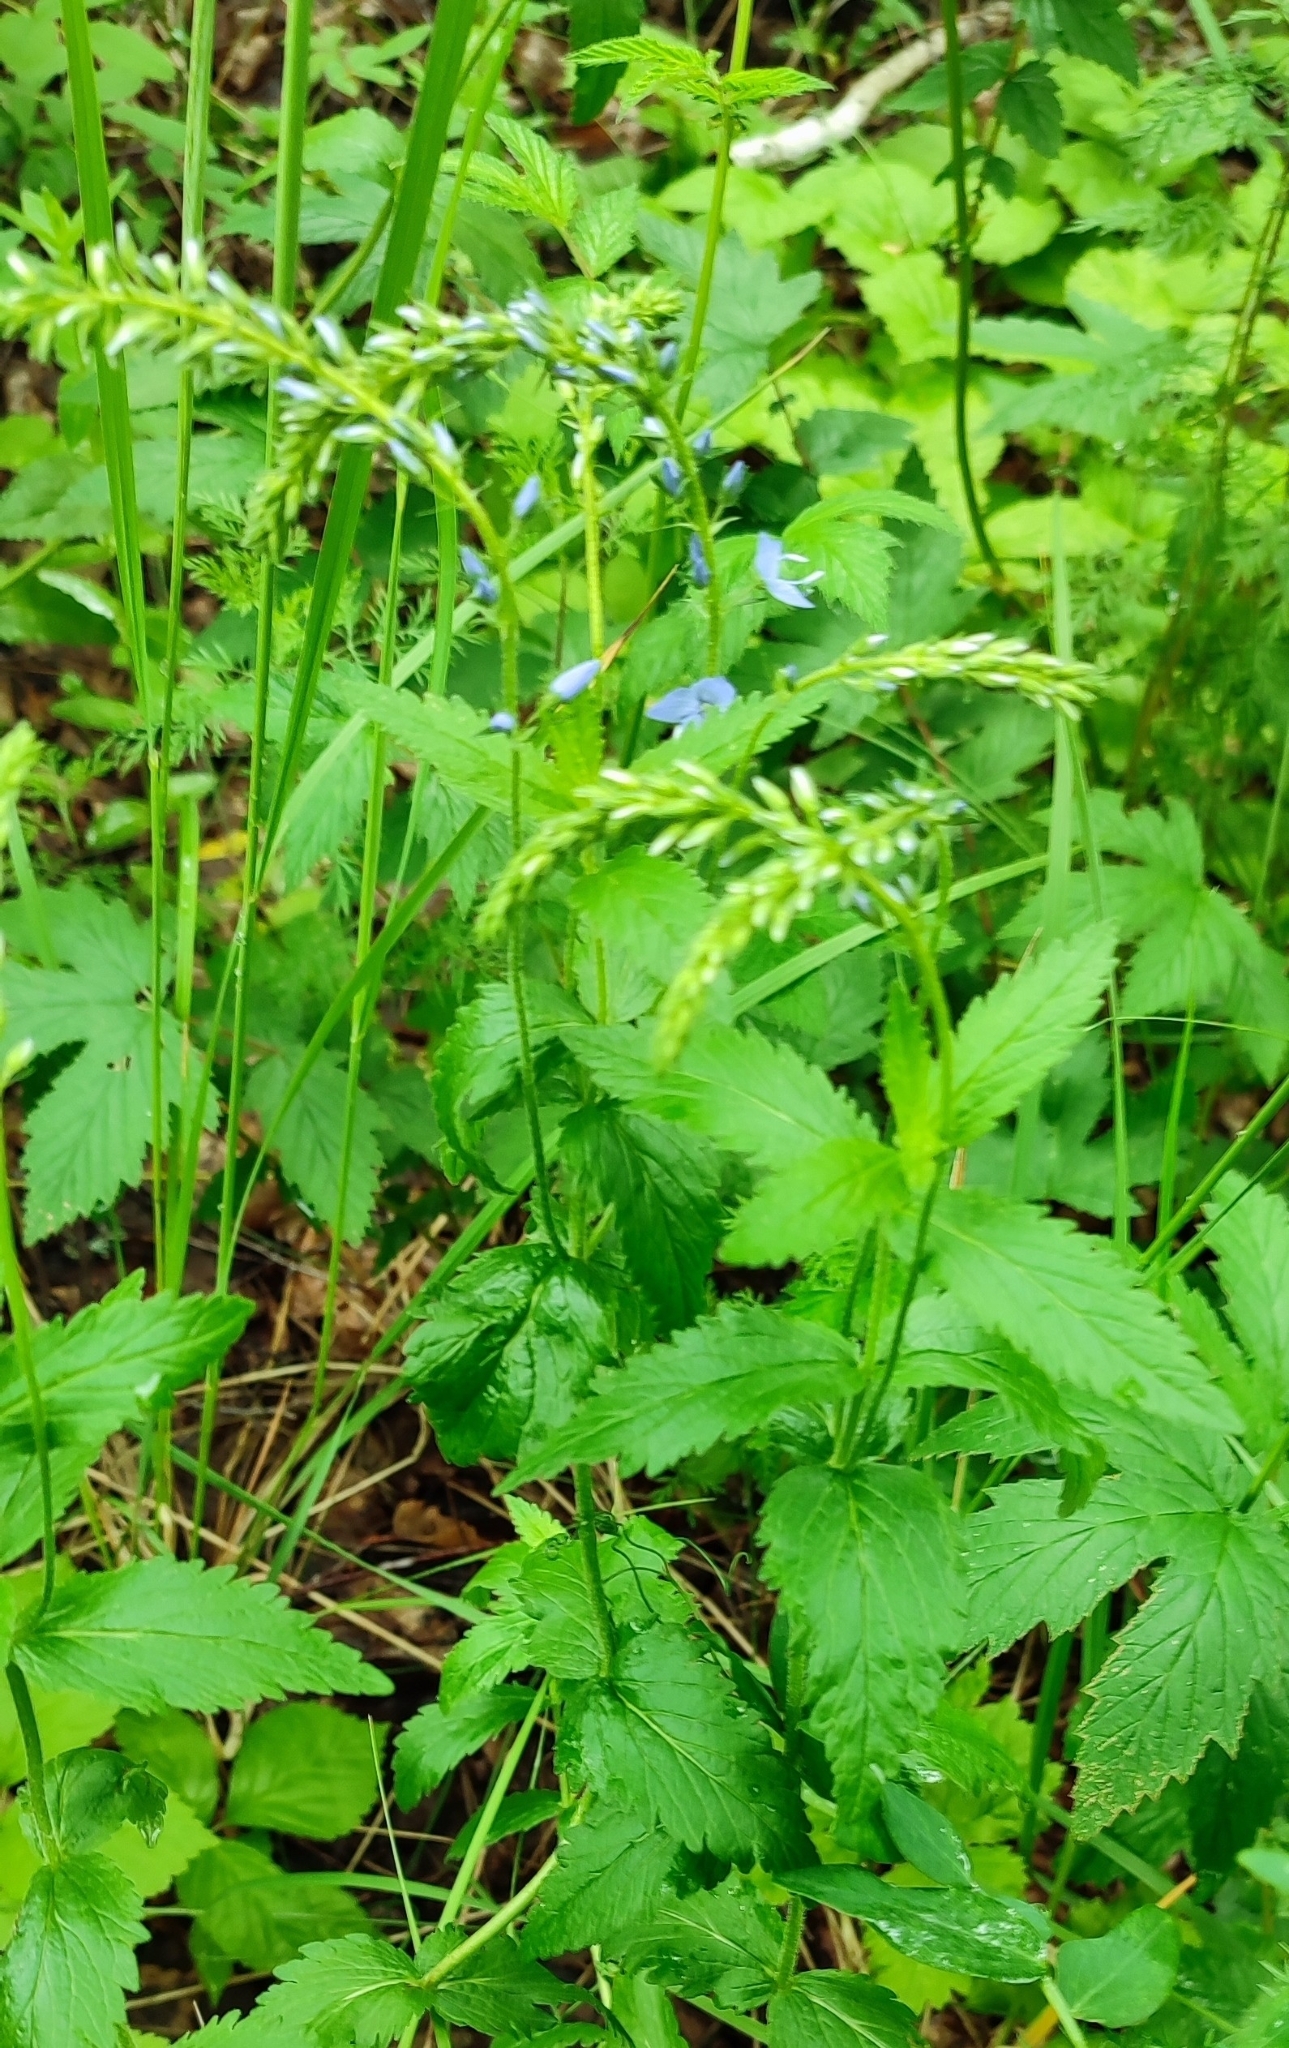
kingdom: Plantae
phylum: Tracheophyta
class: Magnoliopsida
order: Lamiales
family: Plantaginaceae
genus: Veronica
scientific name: Veronica teucrium
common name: Large speedwell
